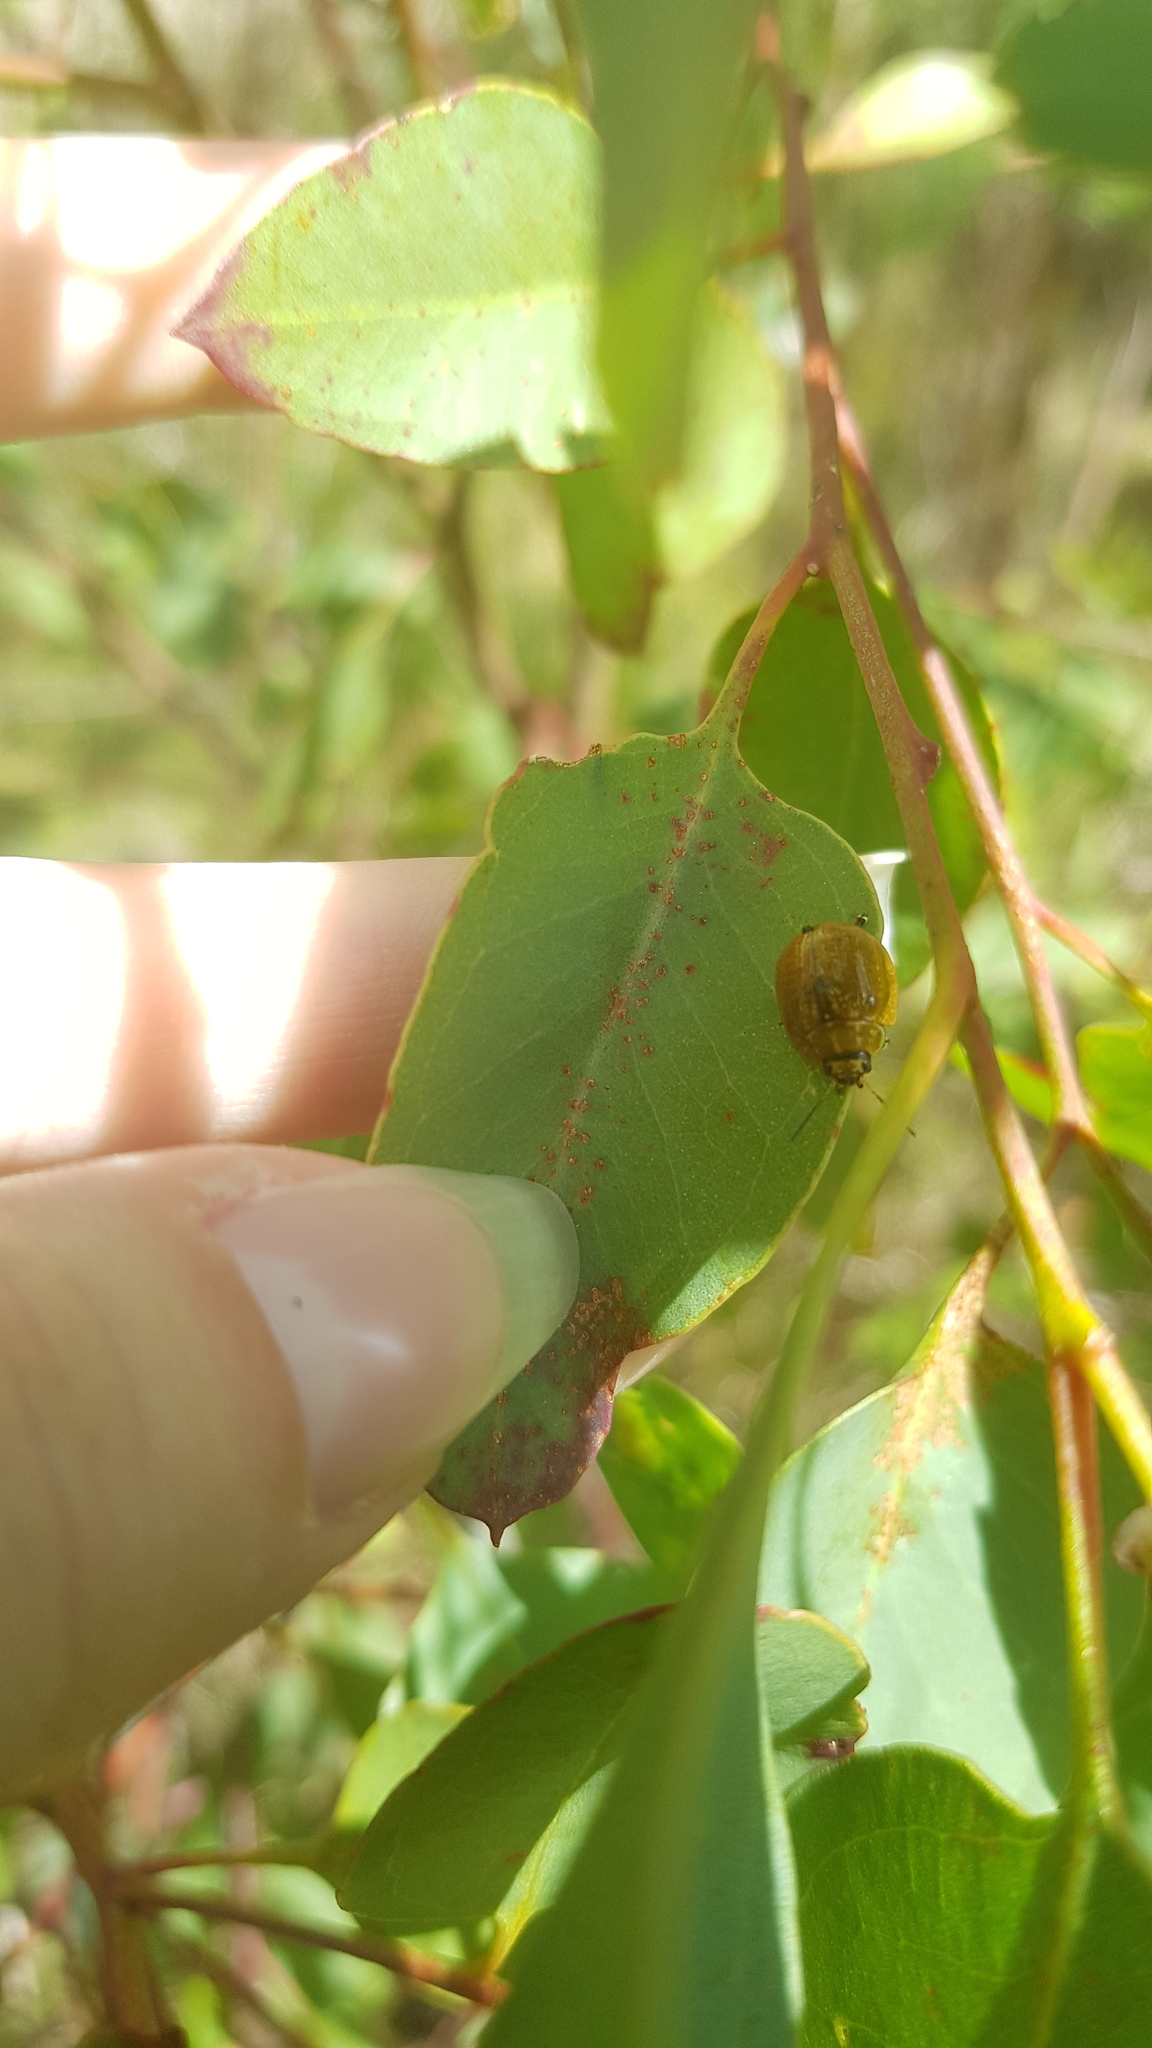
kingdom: Animalia
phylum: Arthropoda
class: Insecta
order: Coleoptera
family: Chrysomelidae
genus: Paropsisterna
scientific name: Paropsisterna cloelia
